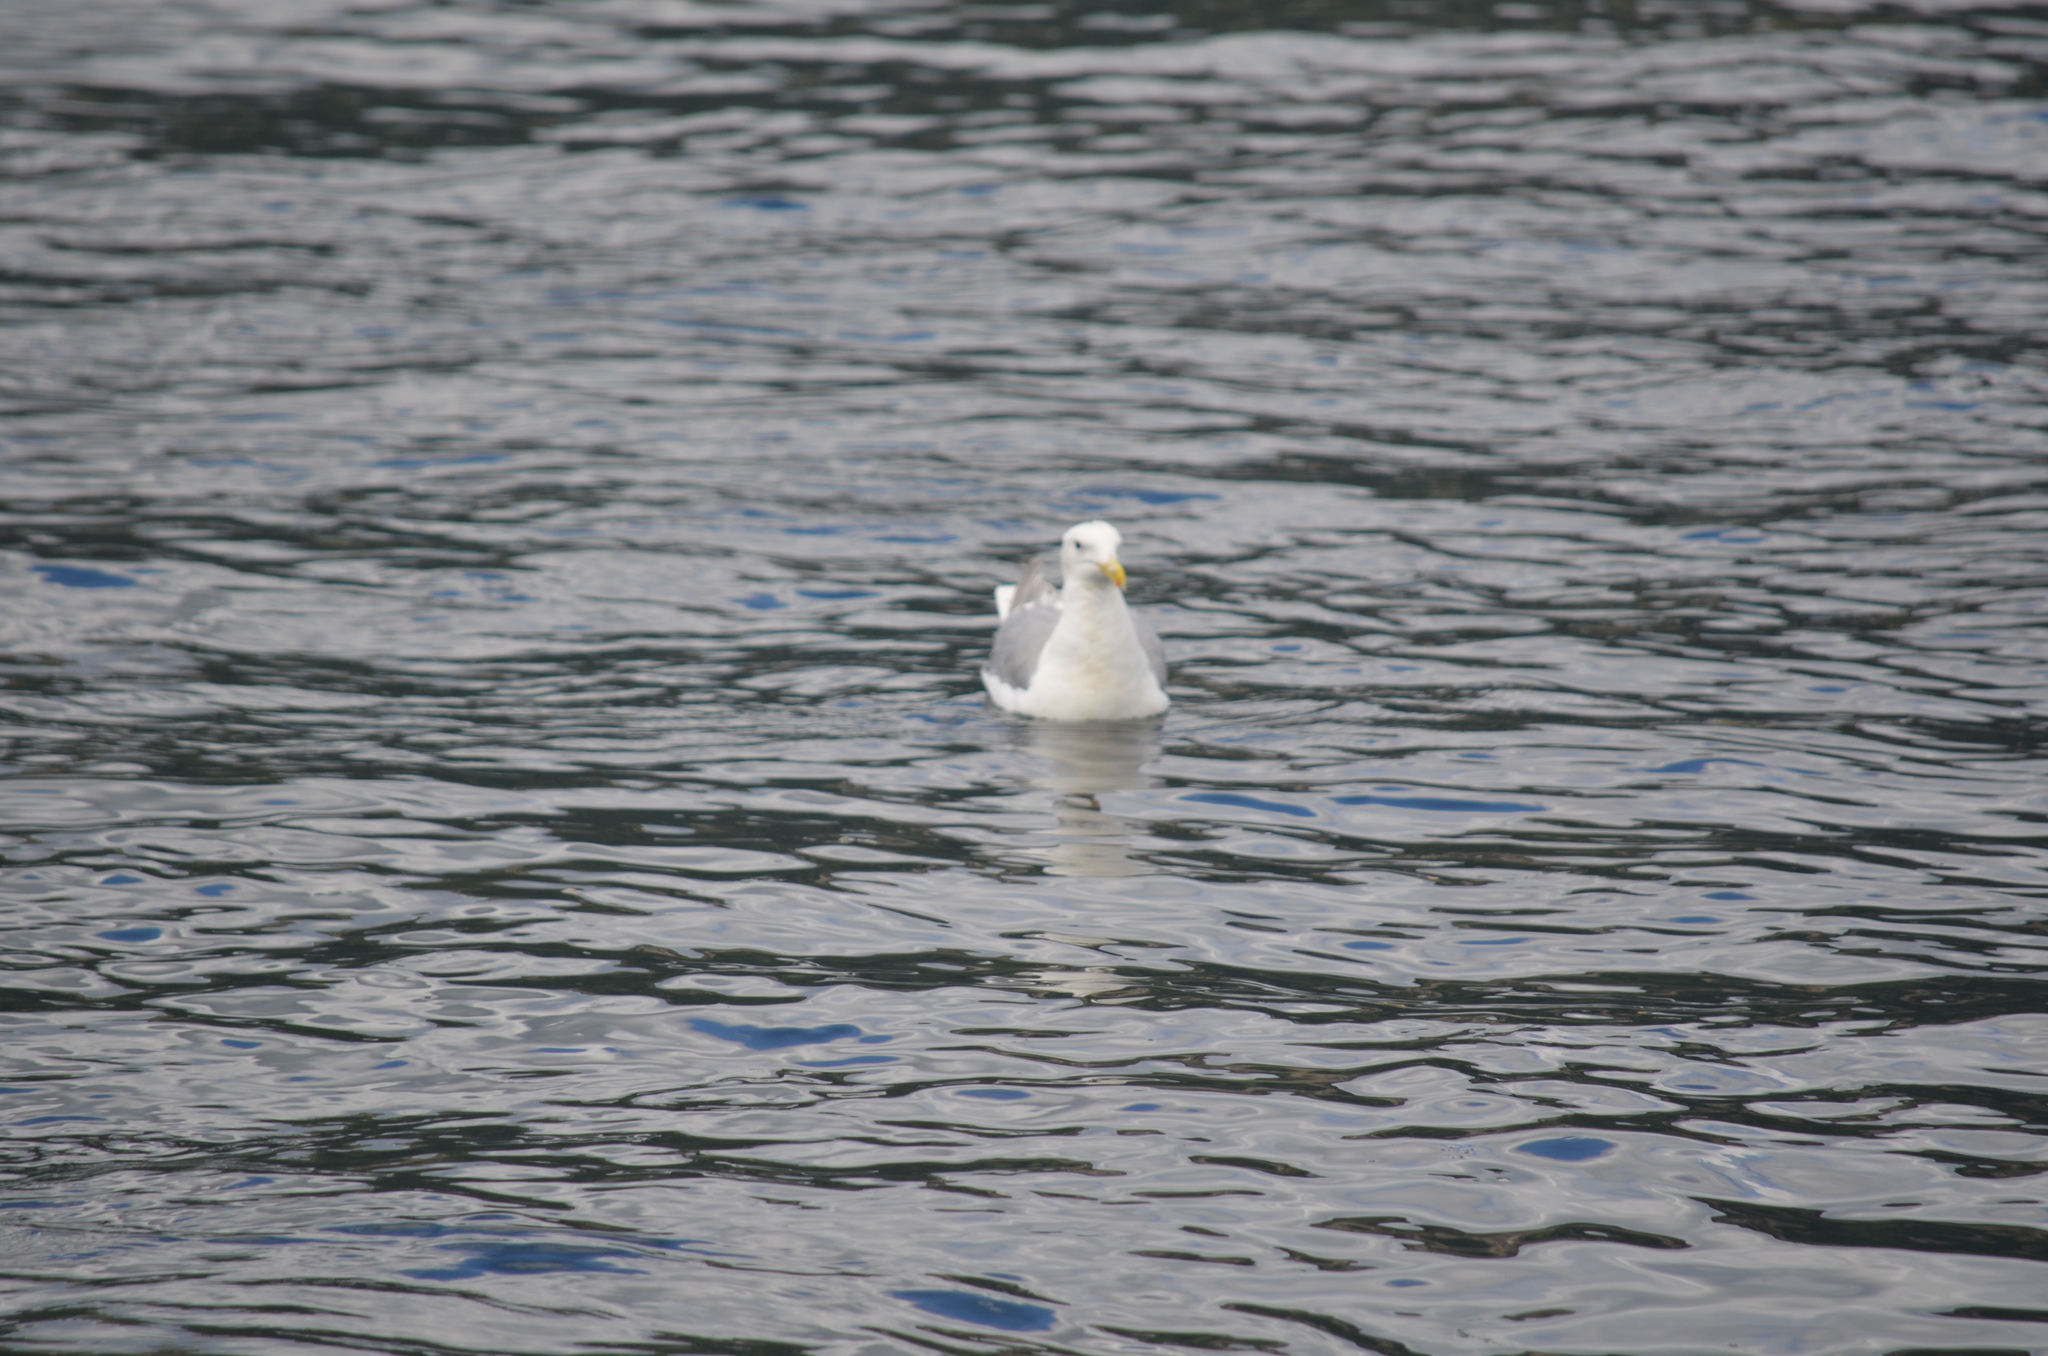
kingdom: Animalia
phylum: Chordata
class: Aves
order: Charadriiformes
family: Laridae
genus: Larus
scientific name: Larus glaucescens
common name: Glaucous-winged gull
